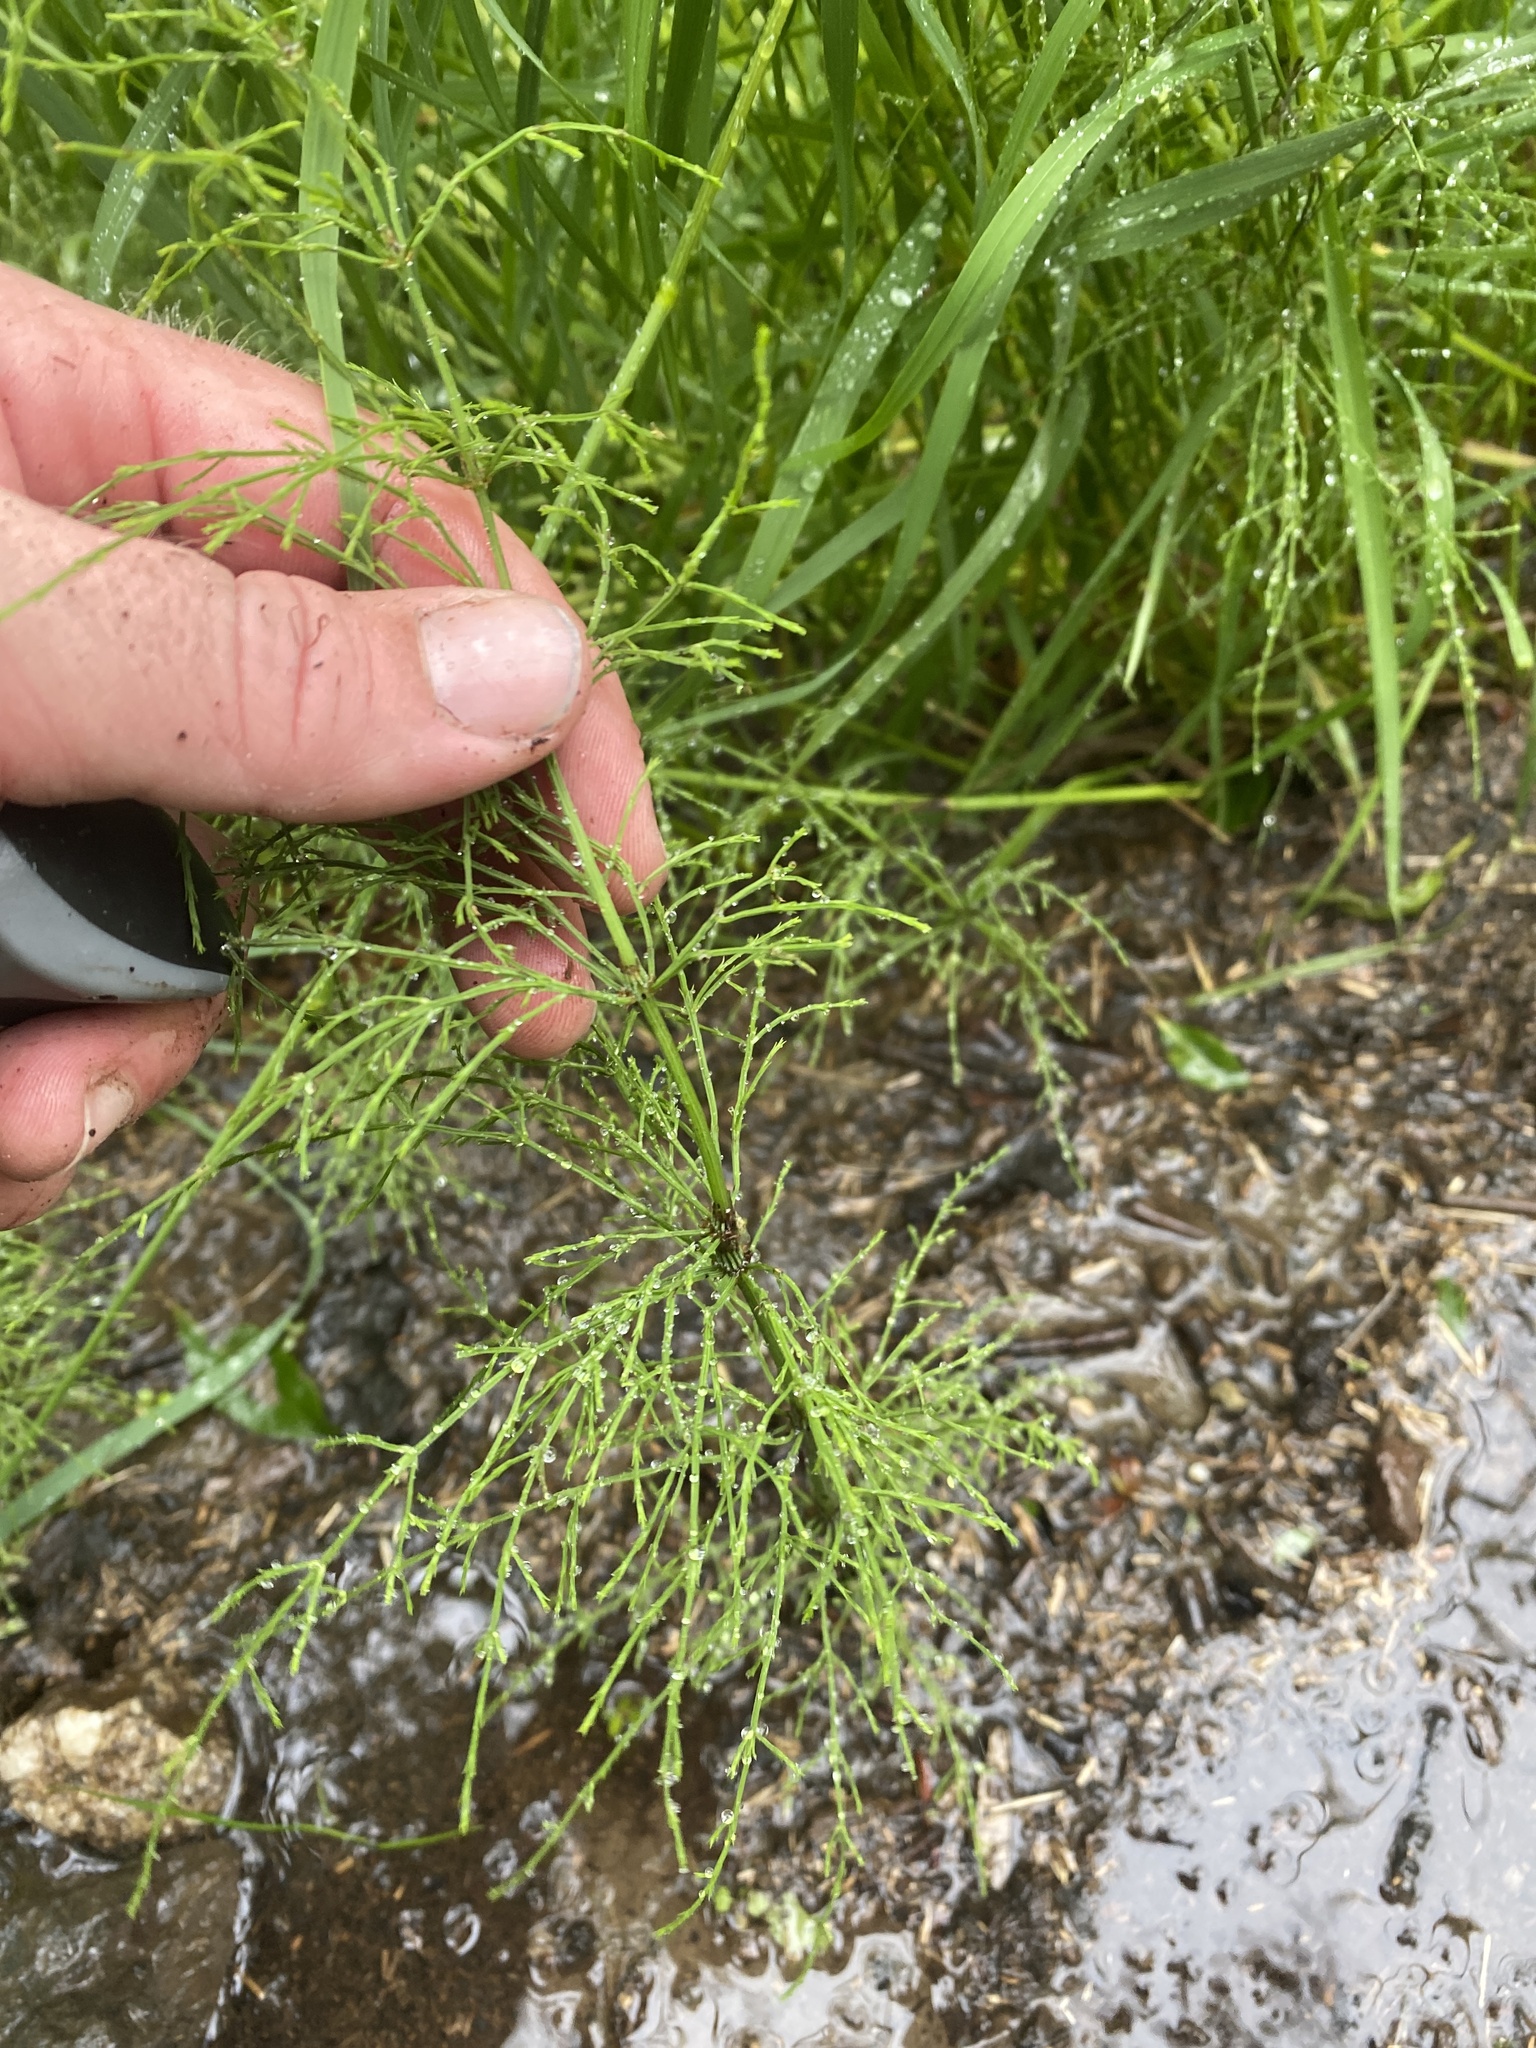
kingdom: Plantae
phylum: Tracheophyta
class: Polypodiopsida
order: Equisetales
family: Equisetaceae
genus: Equisetum
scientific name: Equisetum sylvaticum
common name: Wood horsetail
